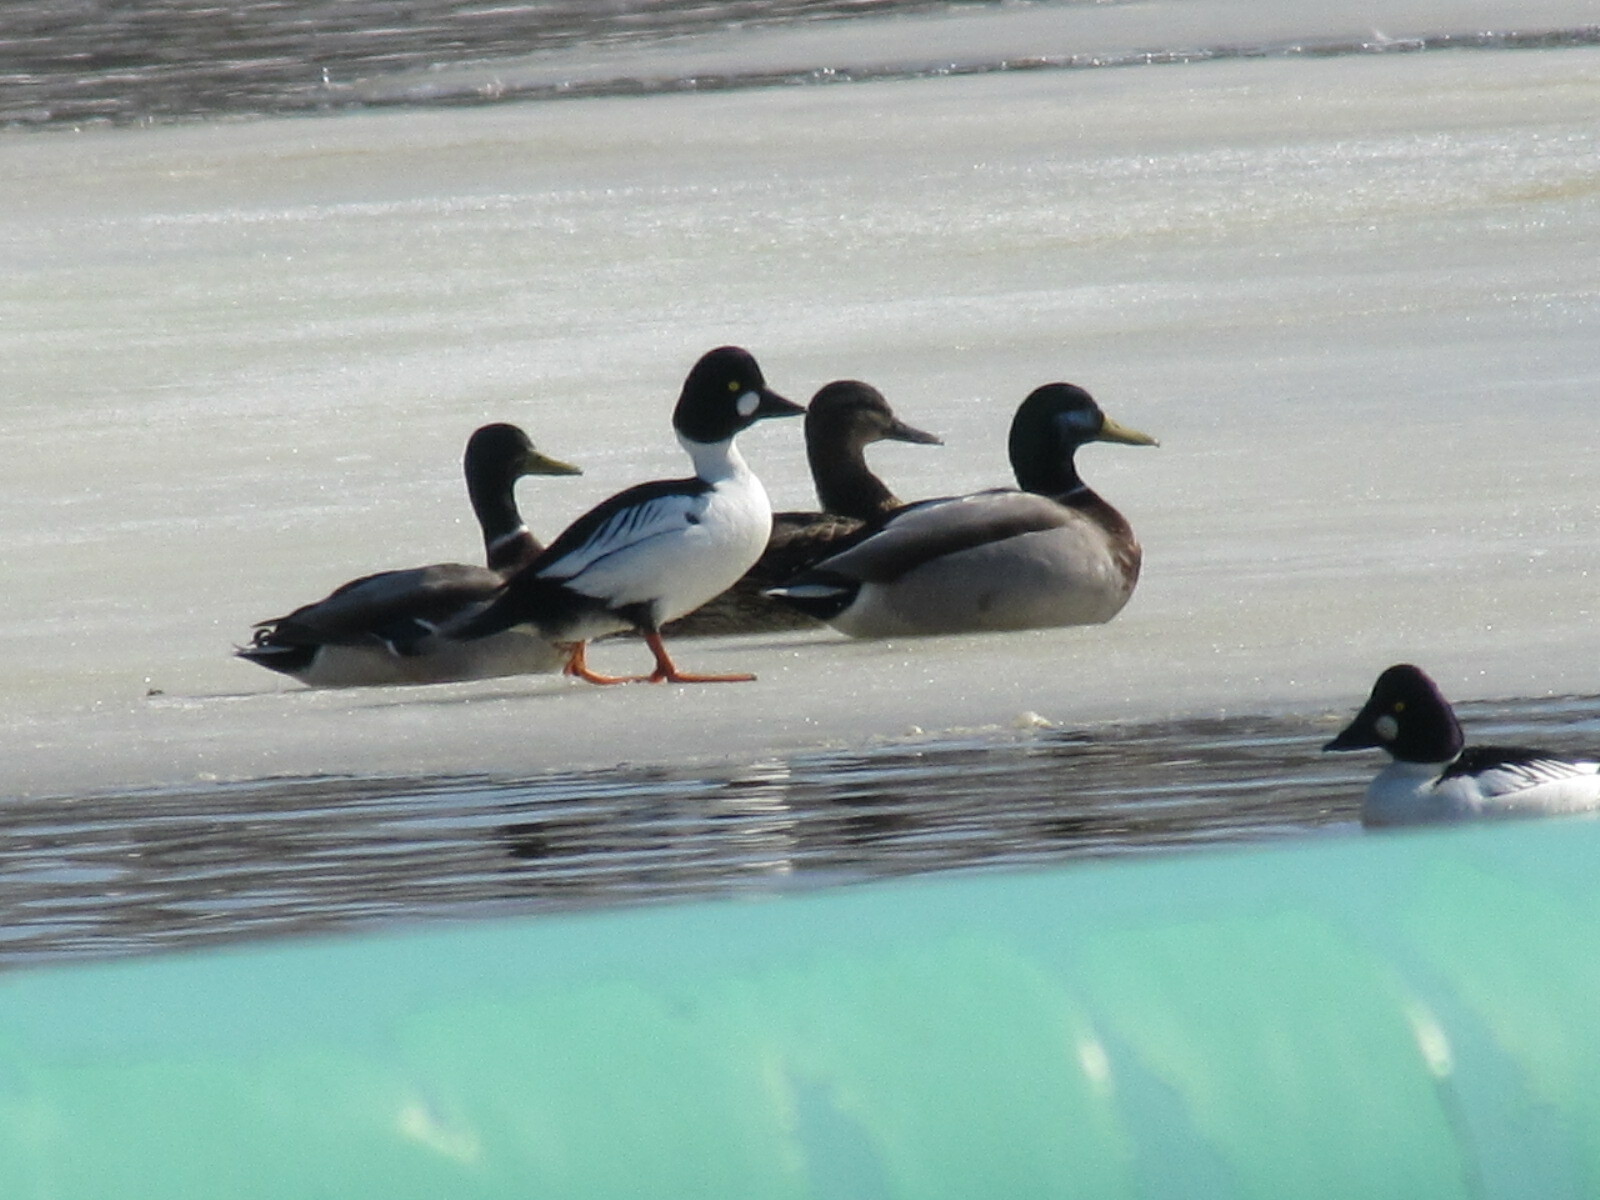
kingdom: Animalia
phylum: Chordata
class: Aves
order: Anseriformes
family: Anatidae
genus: Bucephala
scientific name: Bucephala clangula
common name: Common goldeneye
